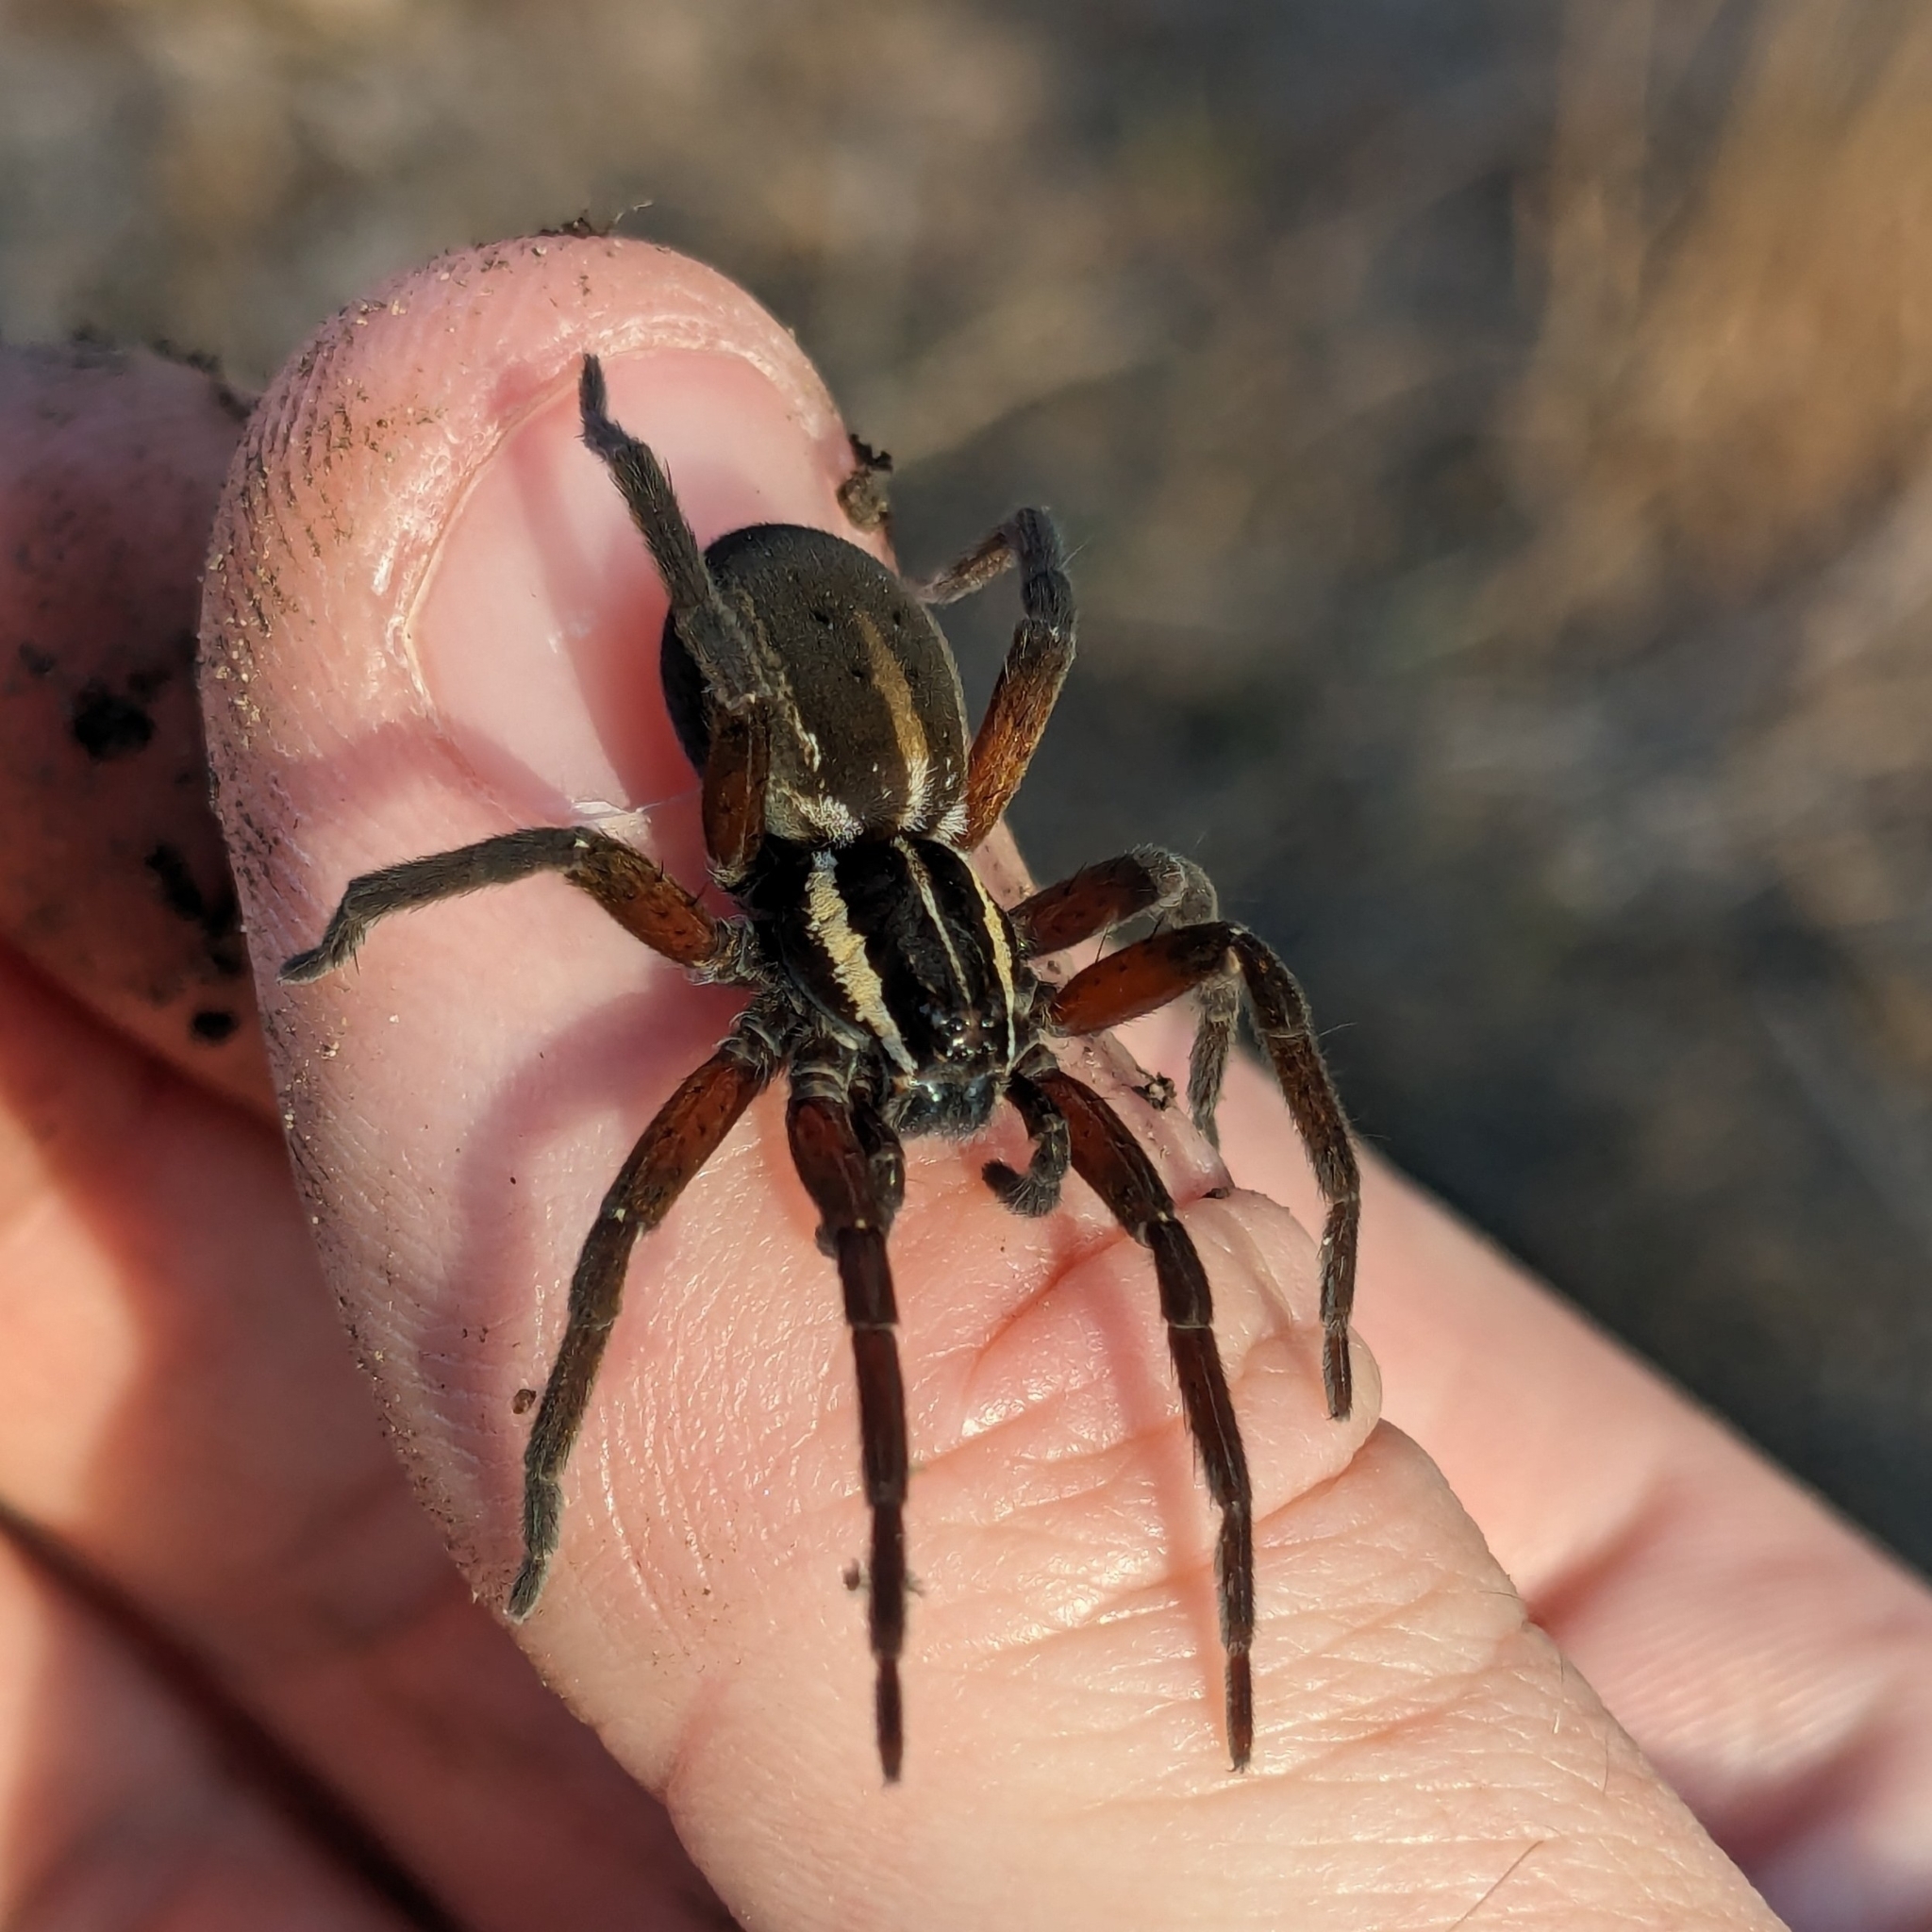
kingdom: Animalia
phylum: Arthropoda
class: Arachnida
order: Araneae
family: Pisauridae
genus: Dolomedes
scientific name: Dolomedes minor
